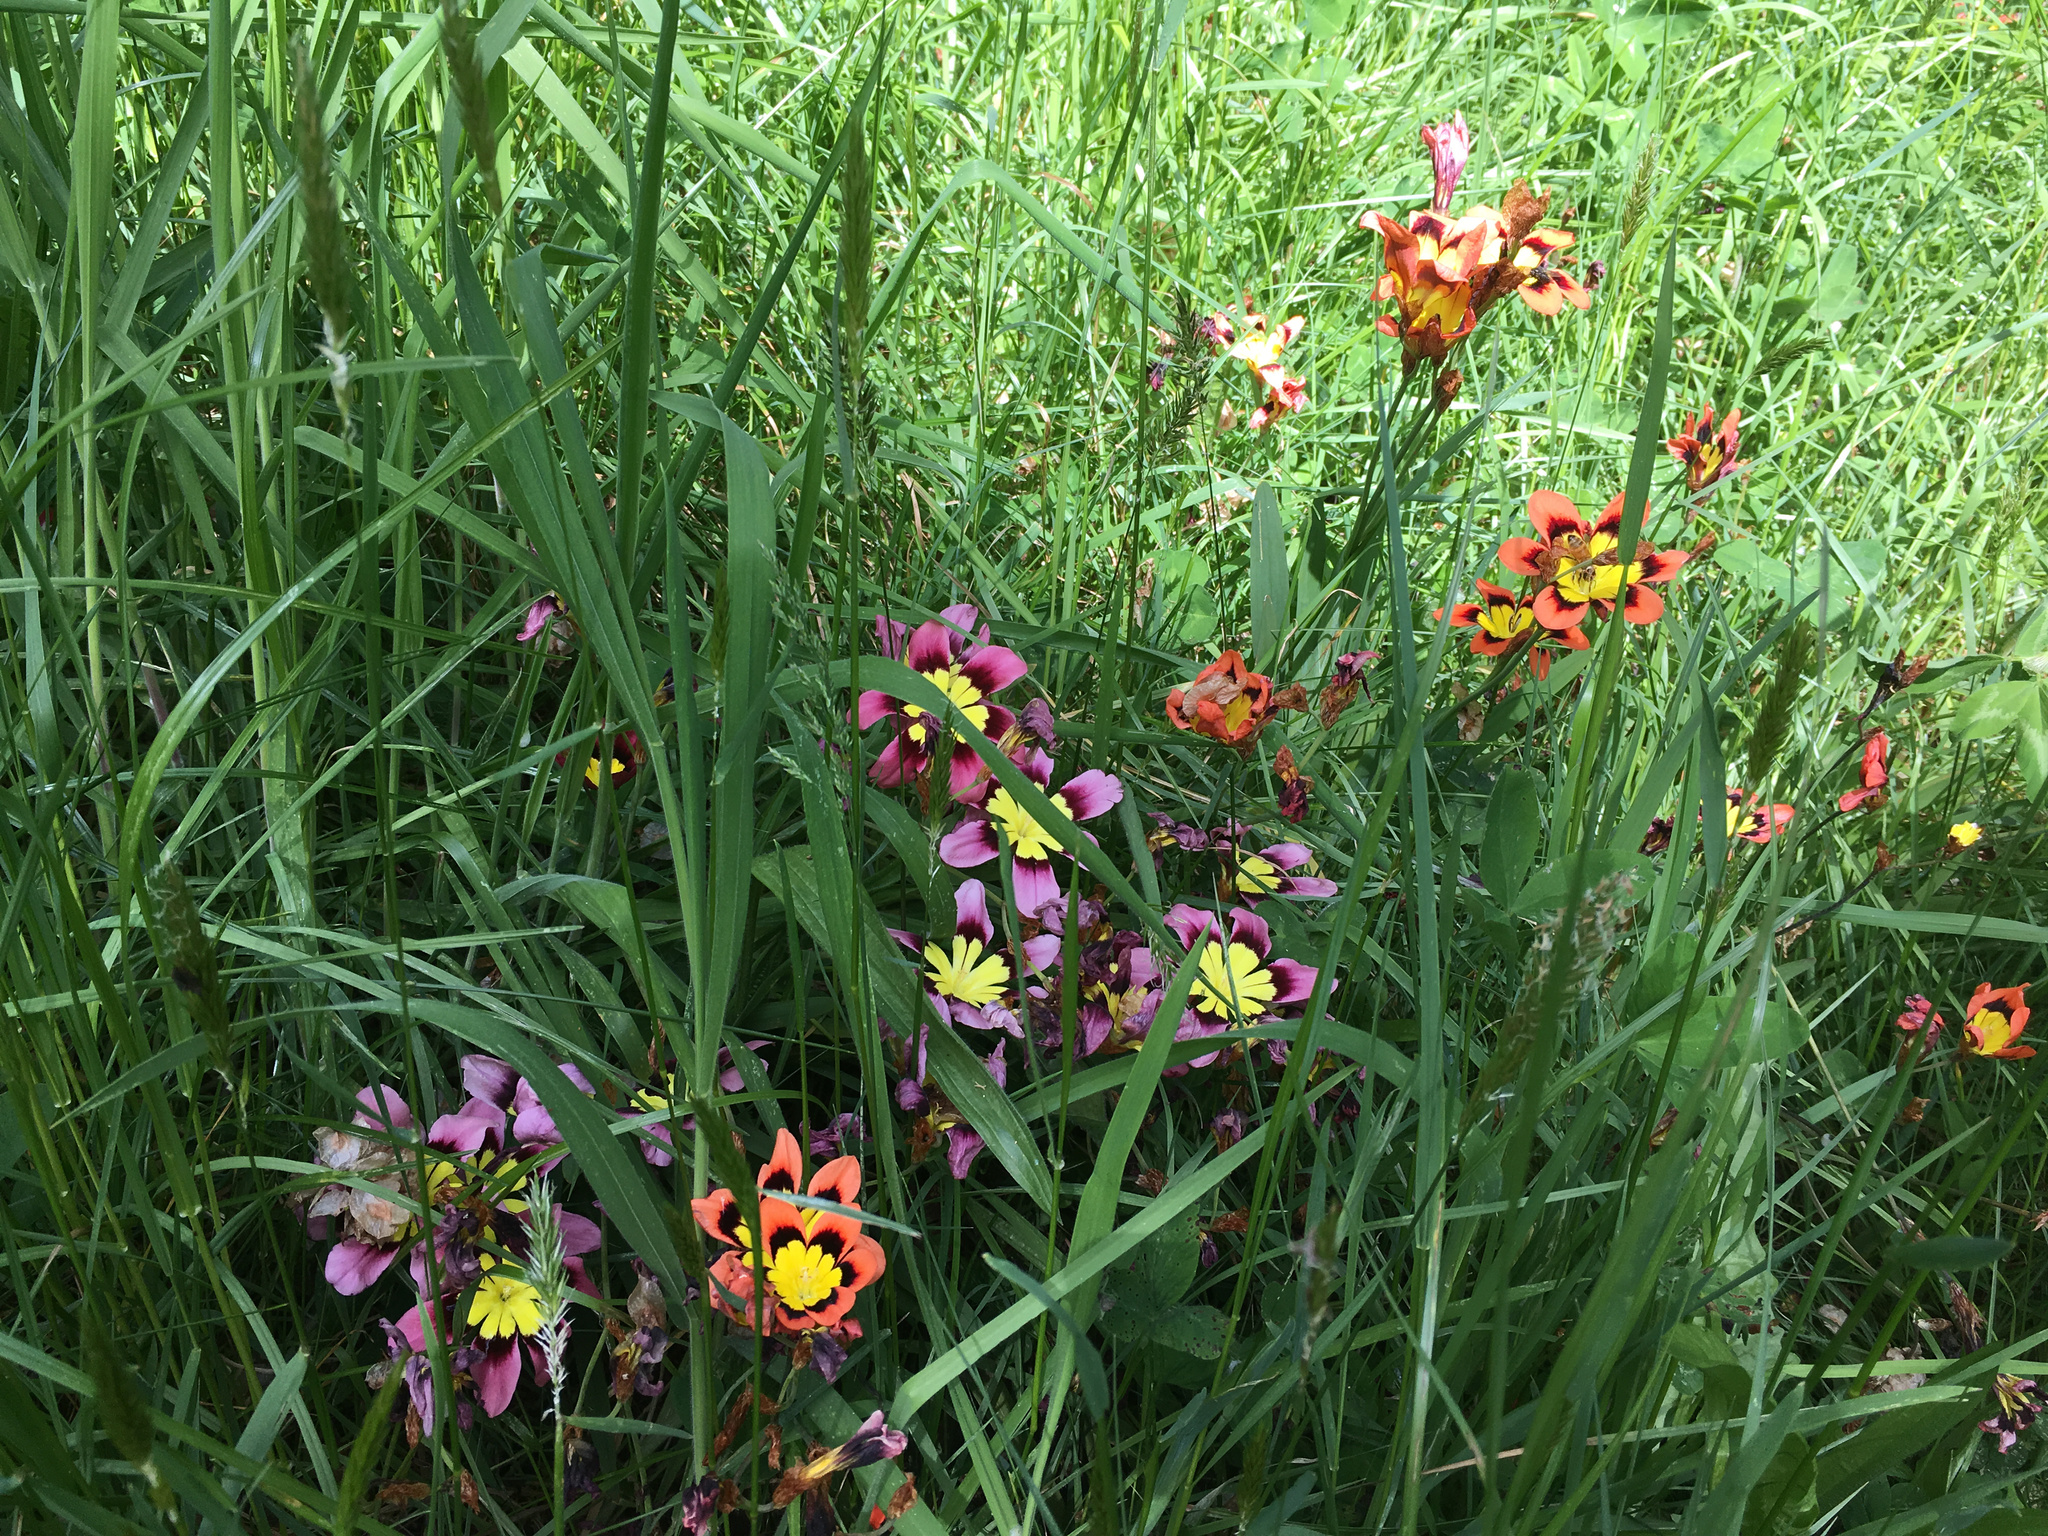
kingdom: Plantae
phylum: Tracheophyta
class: Liliopsida
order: Asparagales
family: Iridaceae
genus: Sparaxis
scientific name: Sparaxis tricolor
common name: Wandflower
